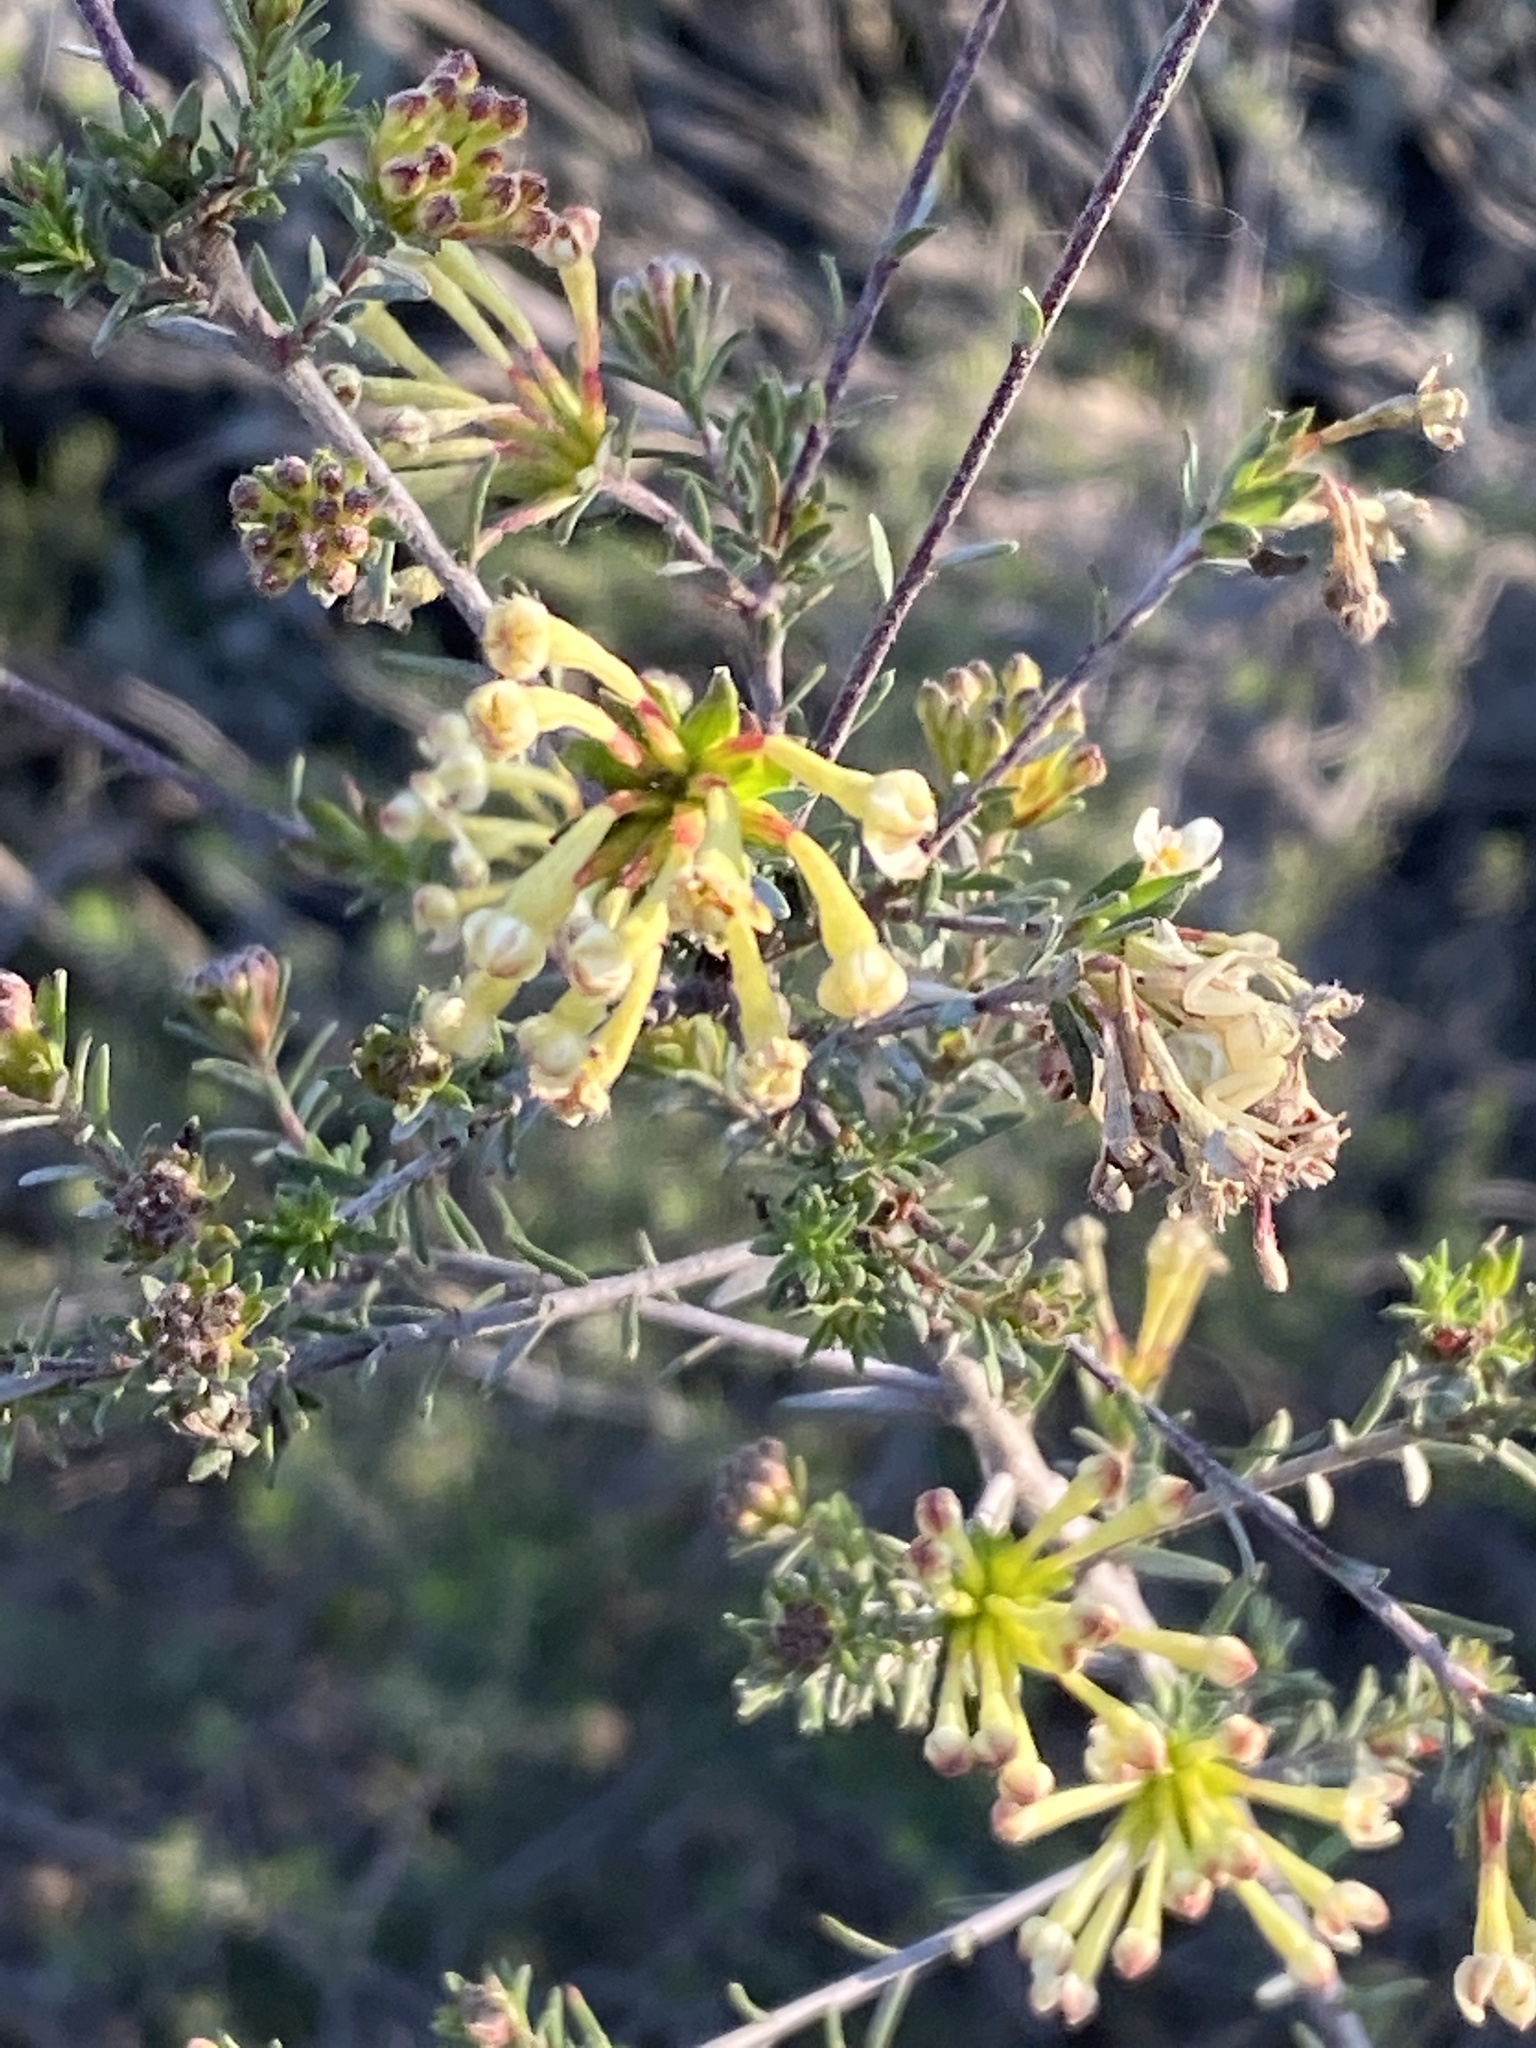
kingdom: Plantae
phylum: Tracheophyta
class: Magnoliopsida
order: Malvales
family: Thymelaeaceae
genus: Gnidia
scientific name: Gnidia squarrosa
